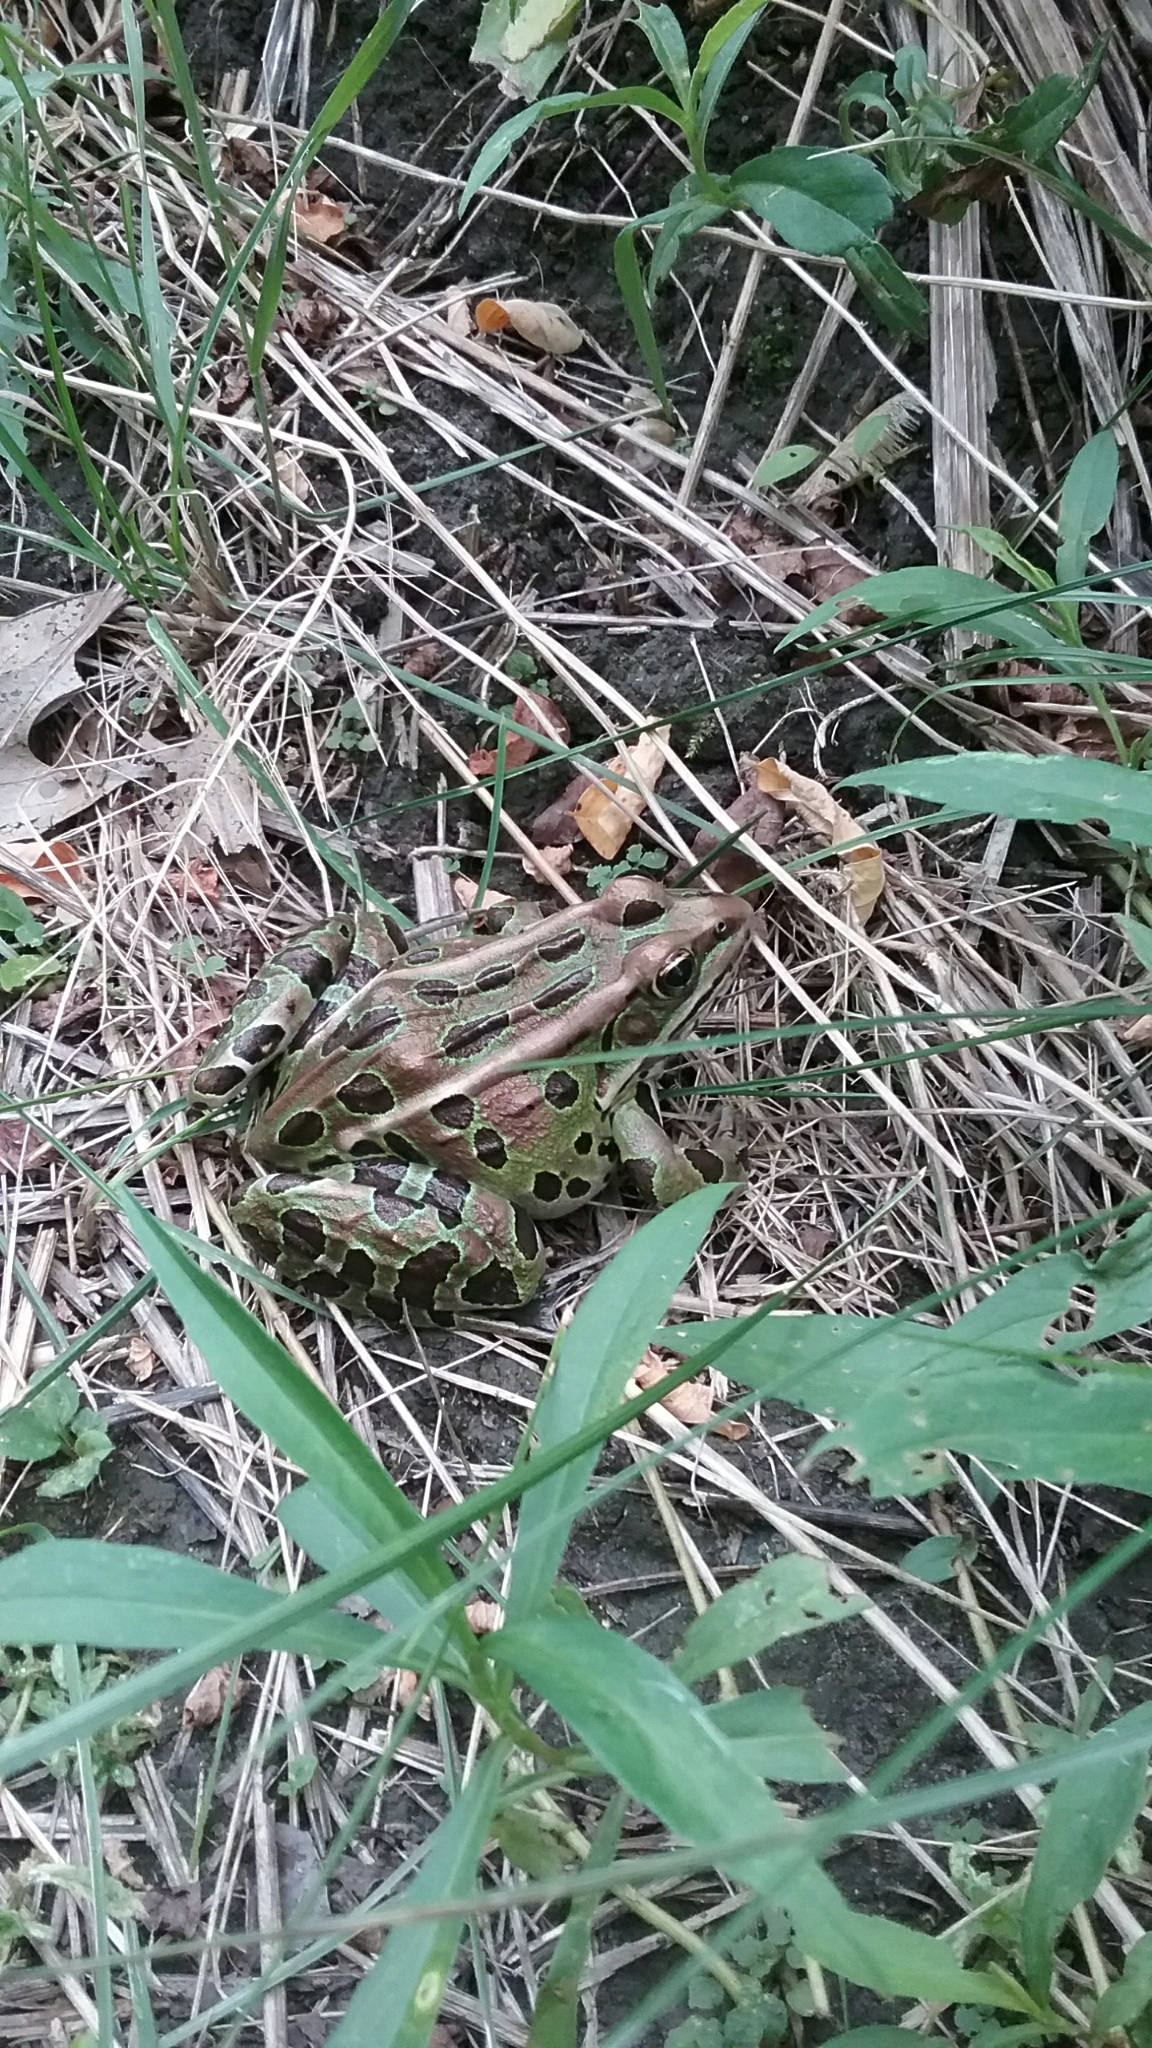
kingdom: Animalia
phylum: Chordata
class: Amphibia
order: Anura
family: Ranidae
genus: Lithobates
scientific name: Lithobates pipiens
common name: Northern leopard frog
